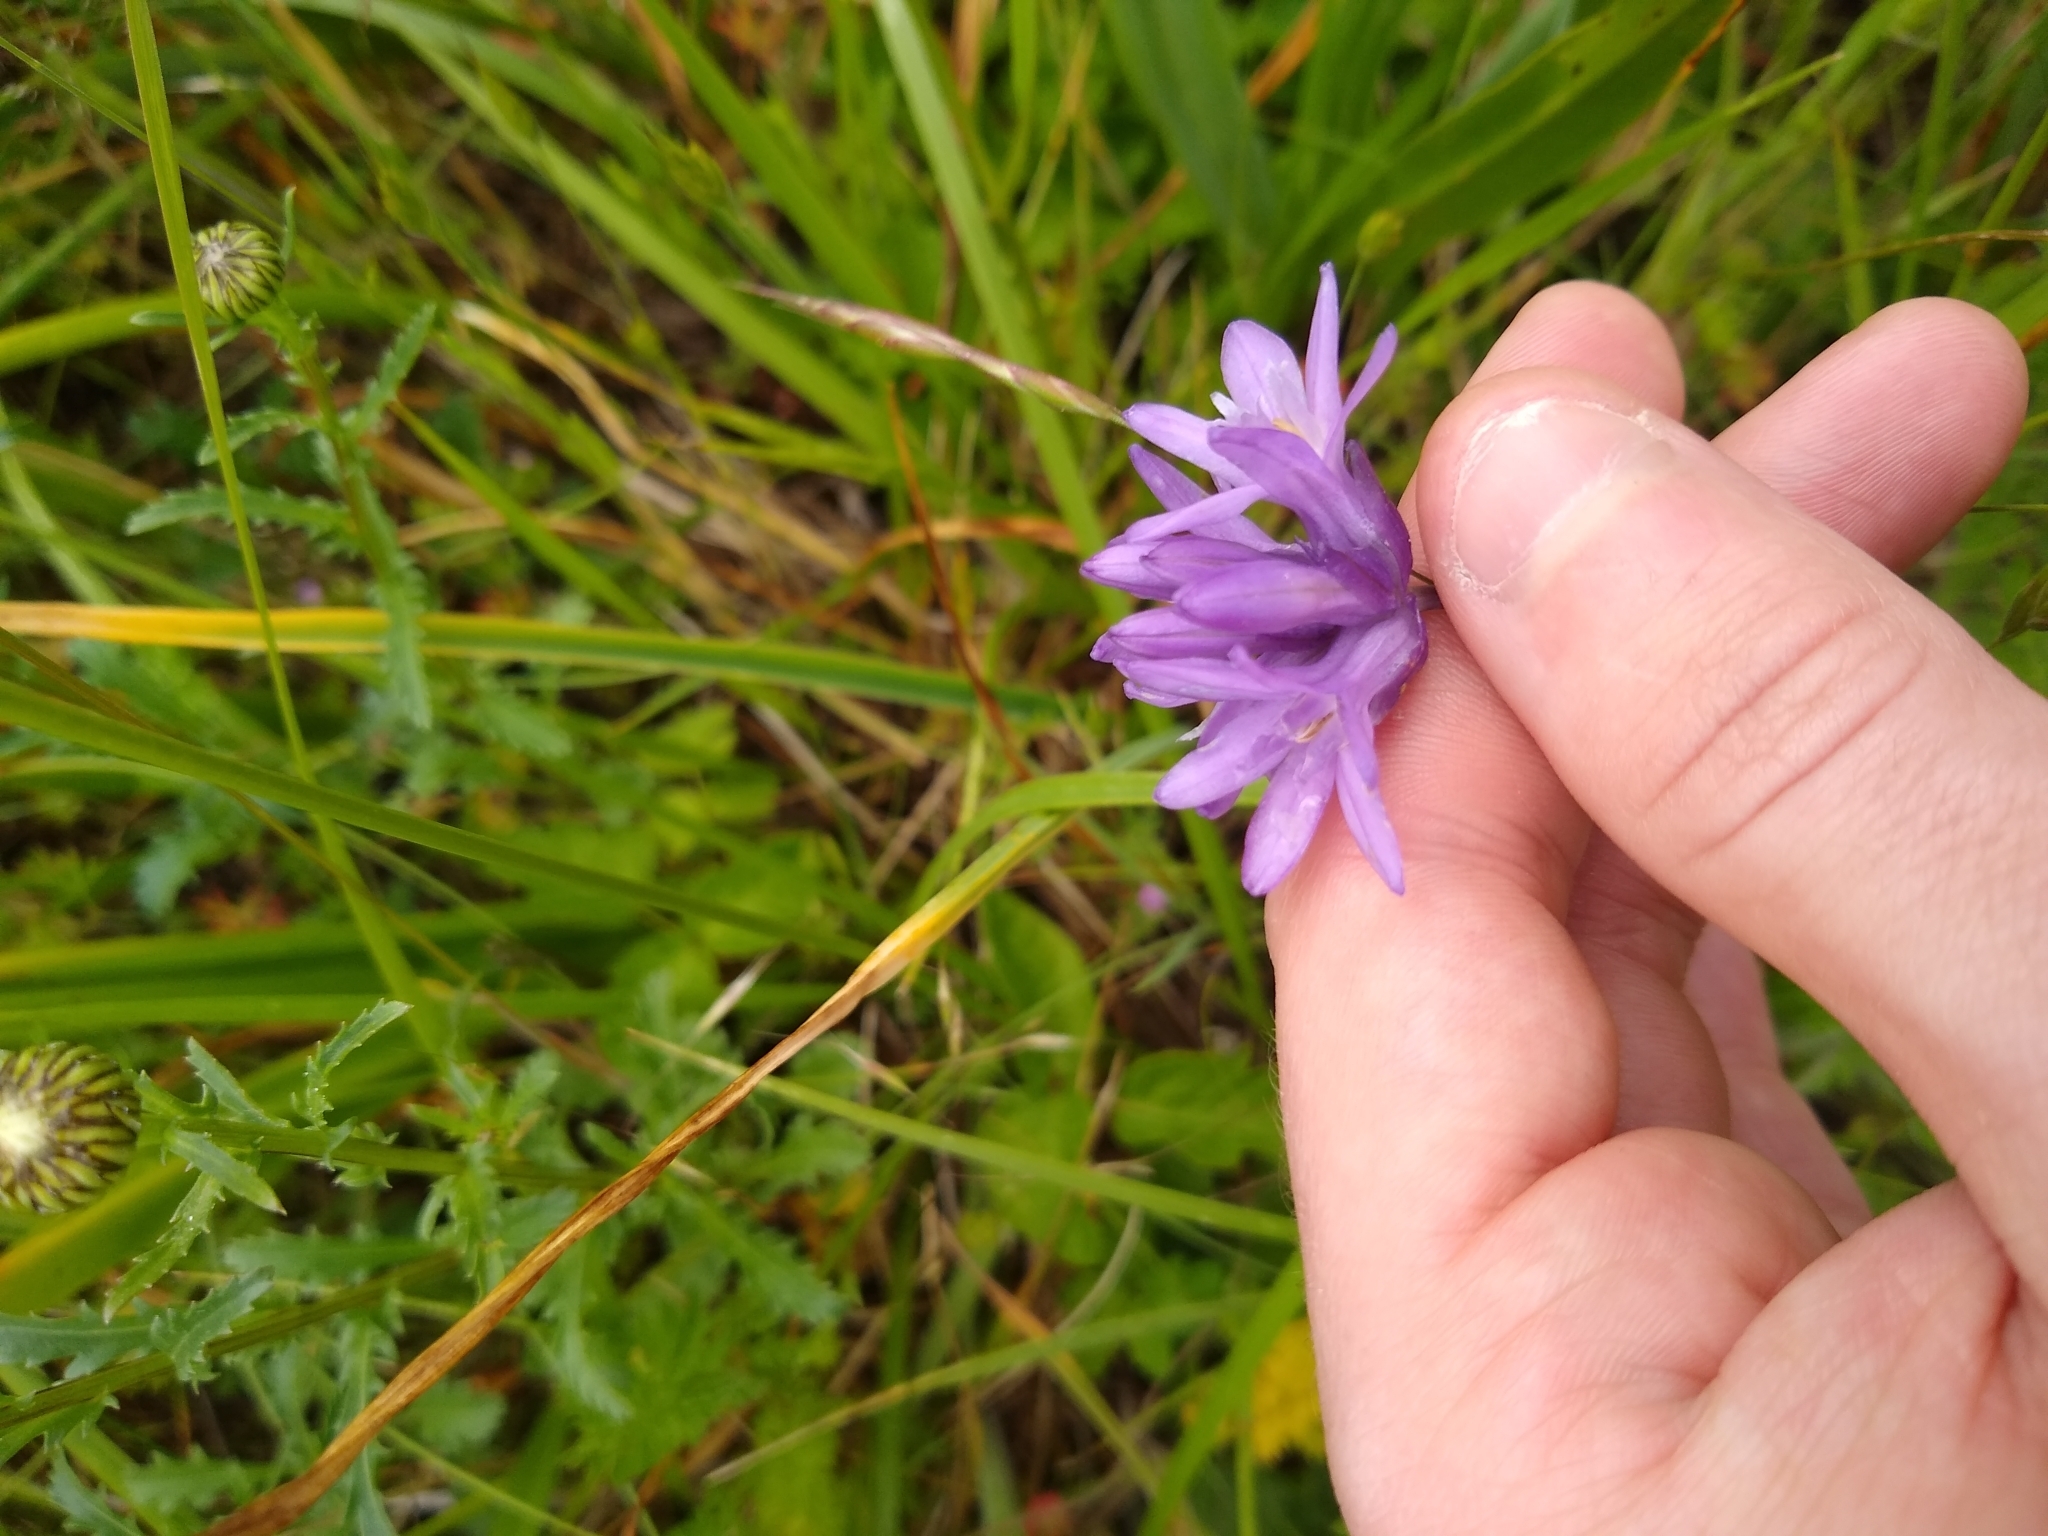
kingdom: Plantae
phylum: Tracheophyta
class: Liliopsida
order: Asparagales
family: Asparagaceae
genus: Dichelostemma
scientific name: Dichelostemma congestum
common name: Fork-tooth ookow
